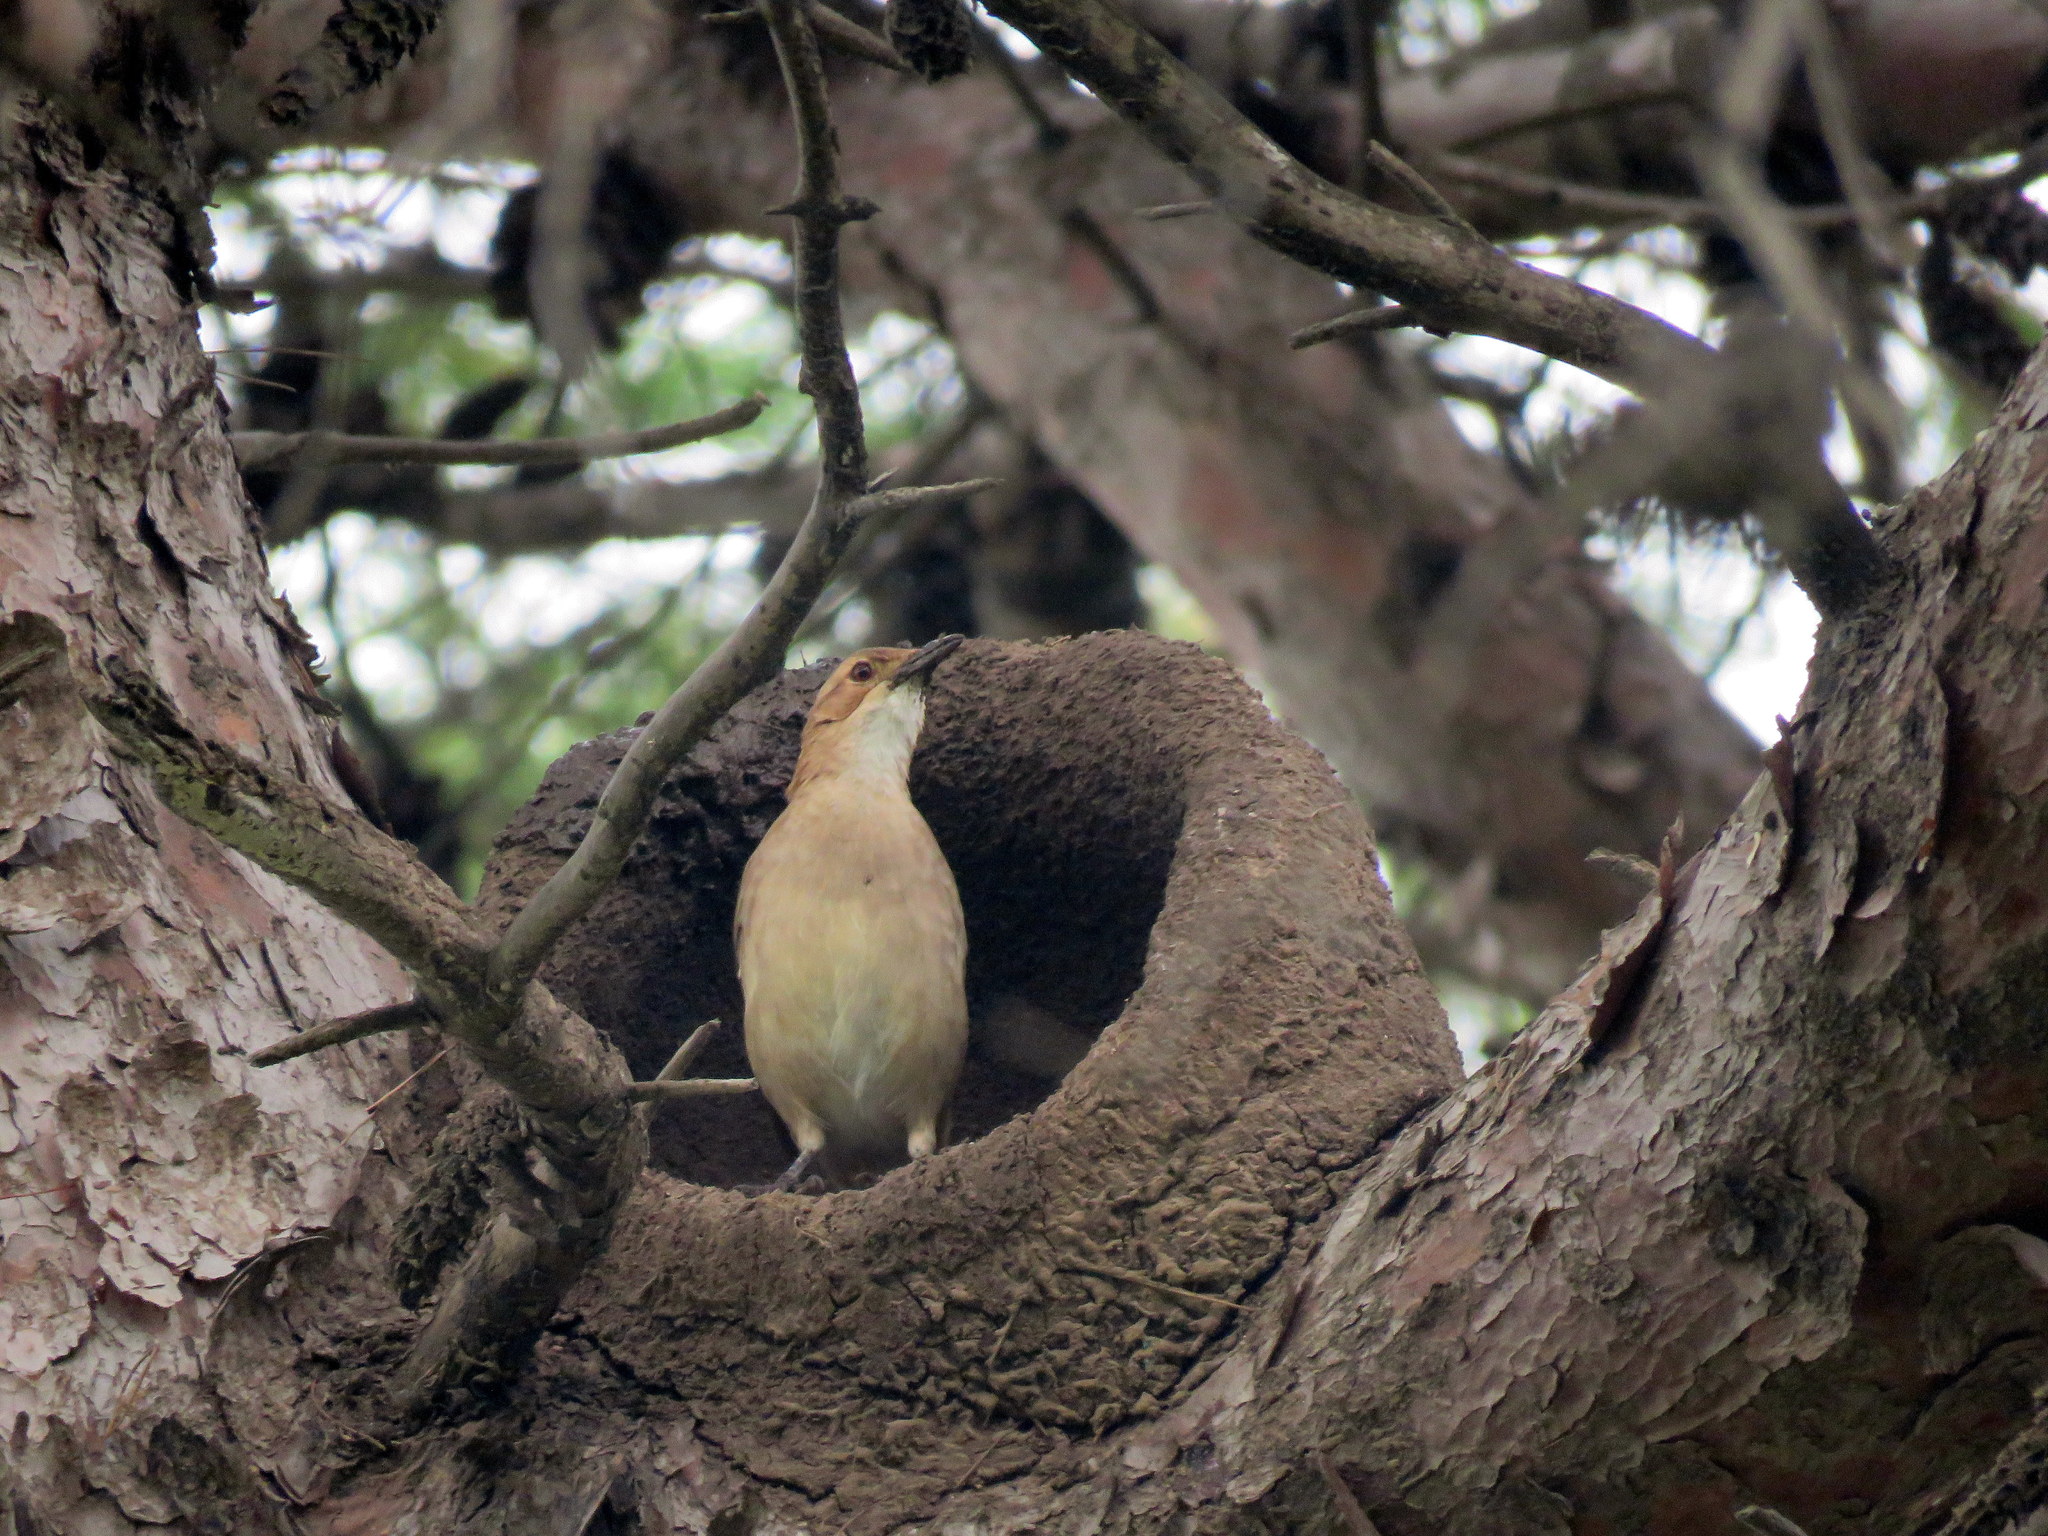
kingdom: Animalia
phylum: Chordata
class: Aves
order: Passeriformes
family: Furnariidae
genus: Furnarius
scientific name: Furnarius rufus
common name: Rufous hornero
